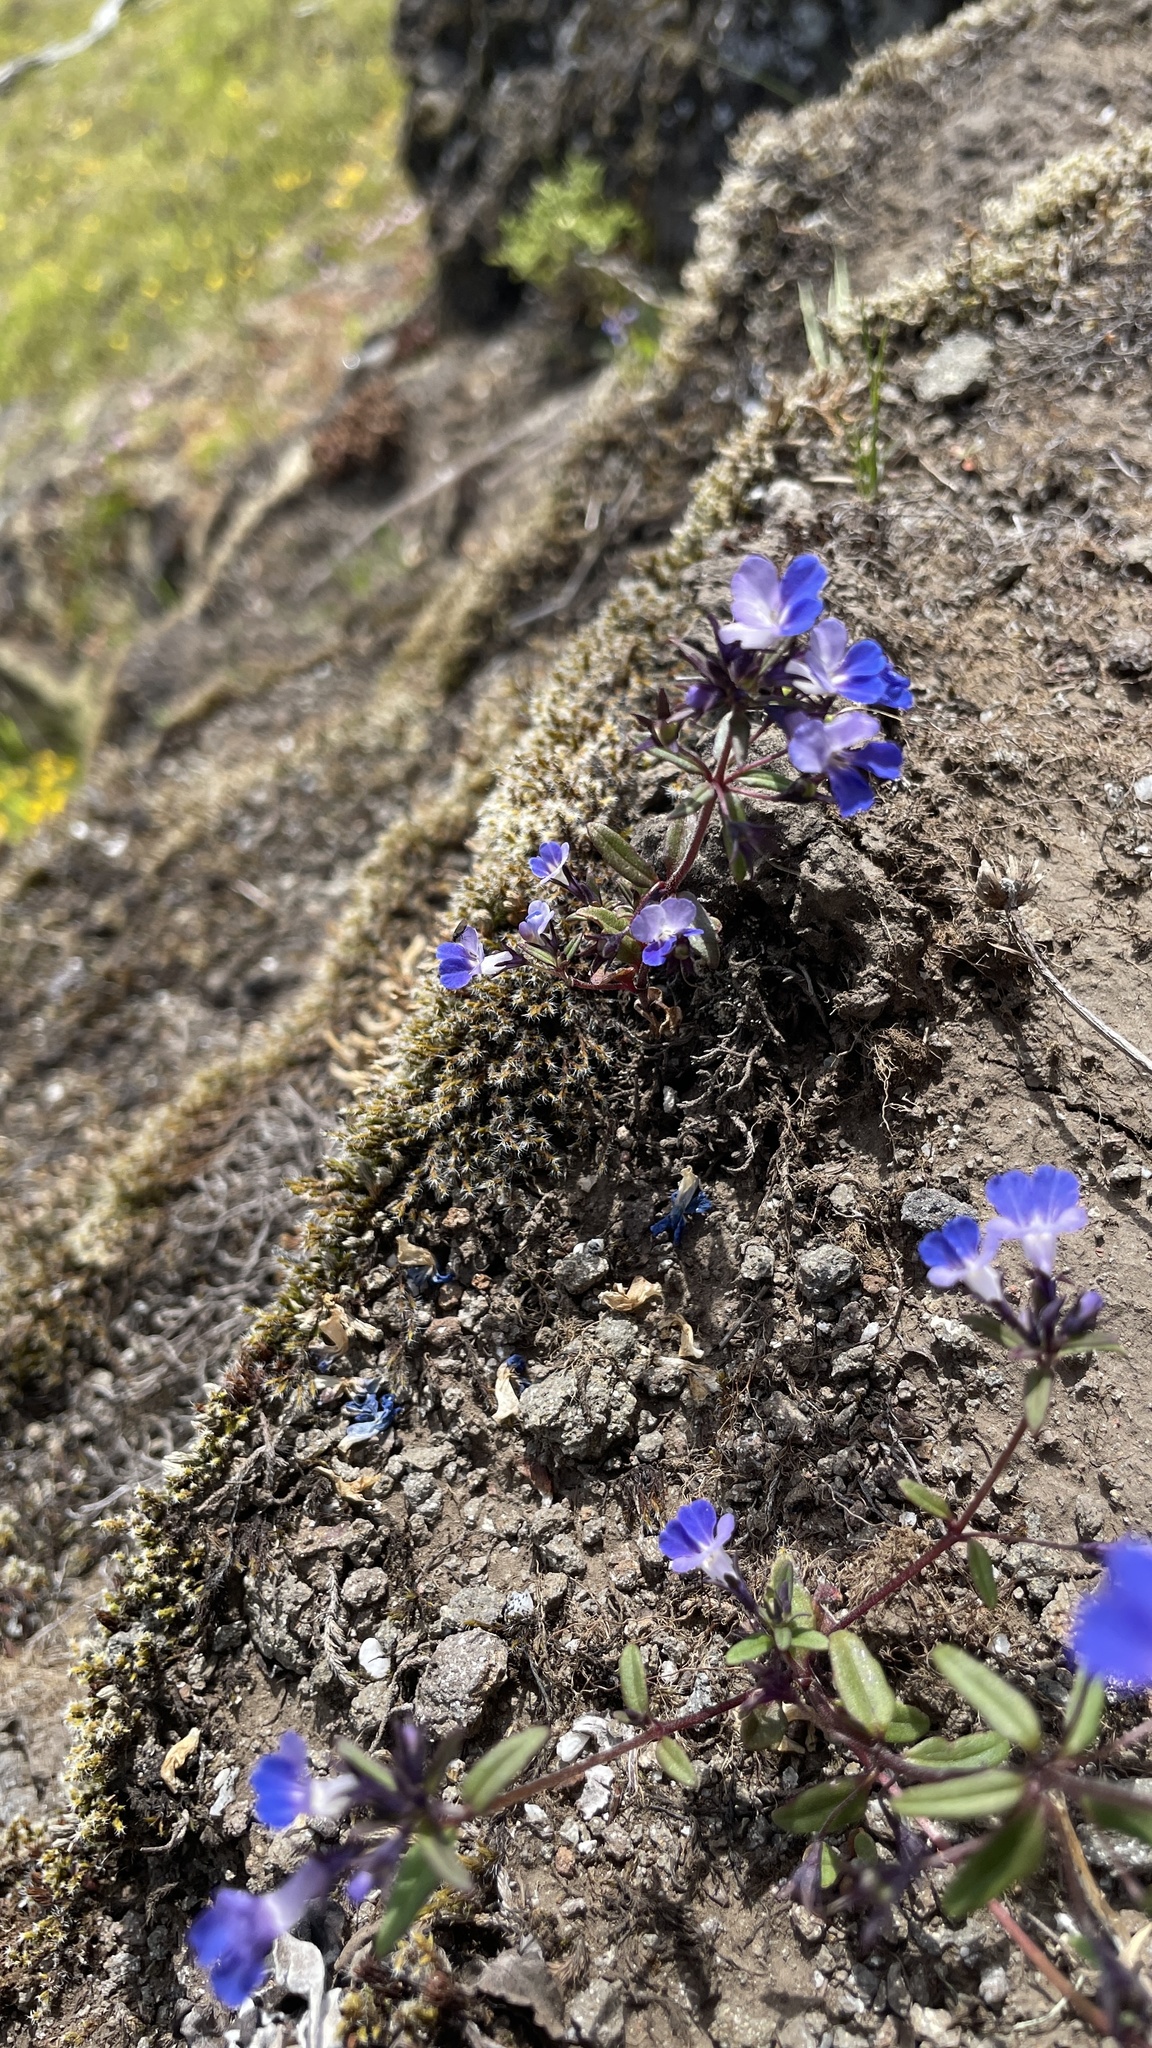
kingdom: Plantae
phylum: Tracheophyta
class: Magnoliopsida
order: Lamiales
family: Plantaginaceae
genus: Collinsia
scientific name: Collinsia grandiflora
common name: Large-flower blue-eyed-mary
